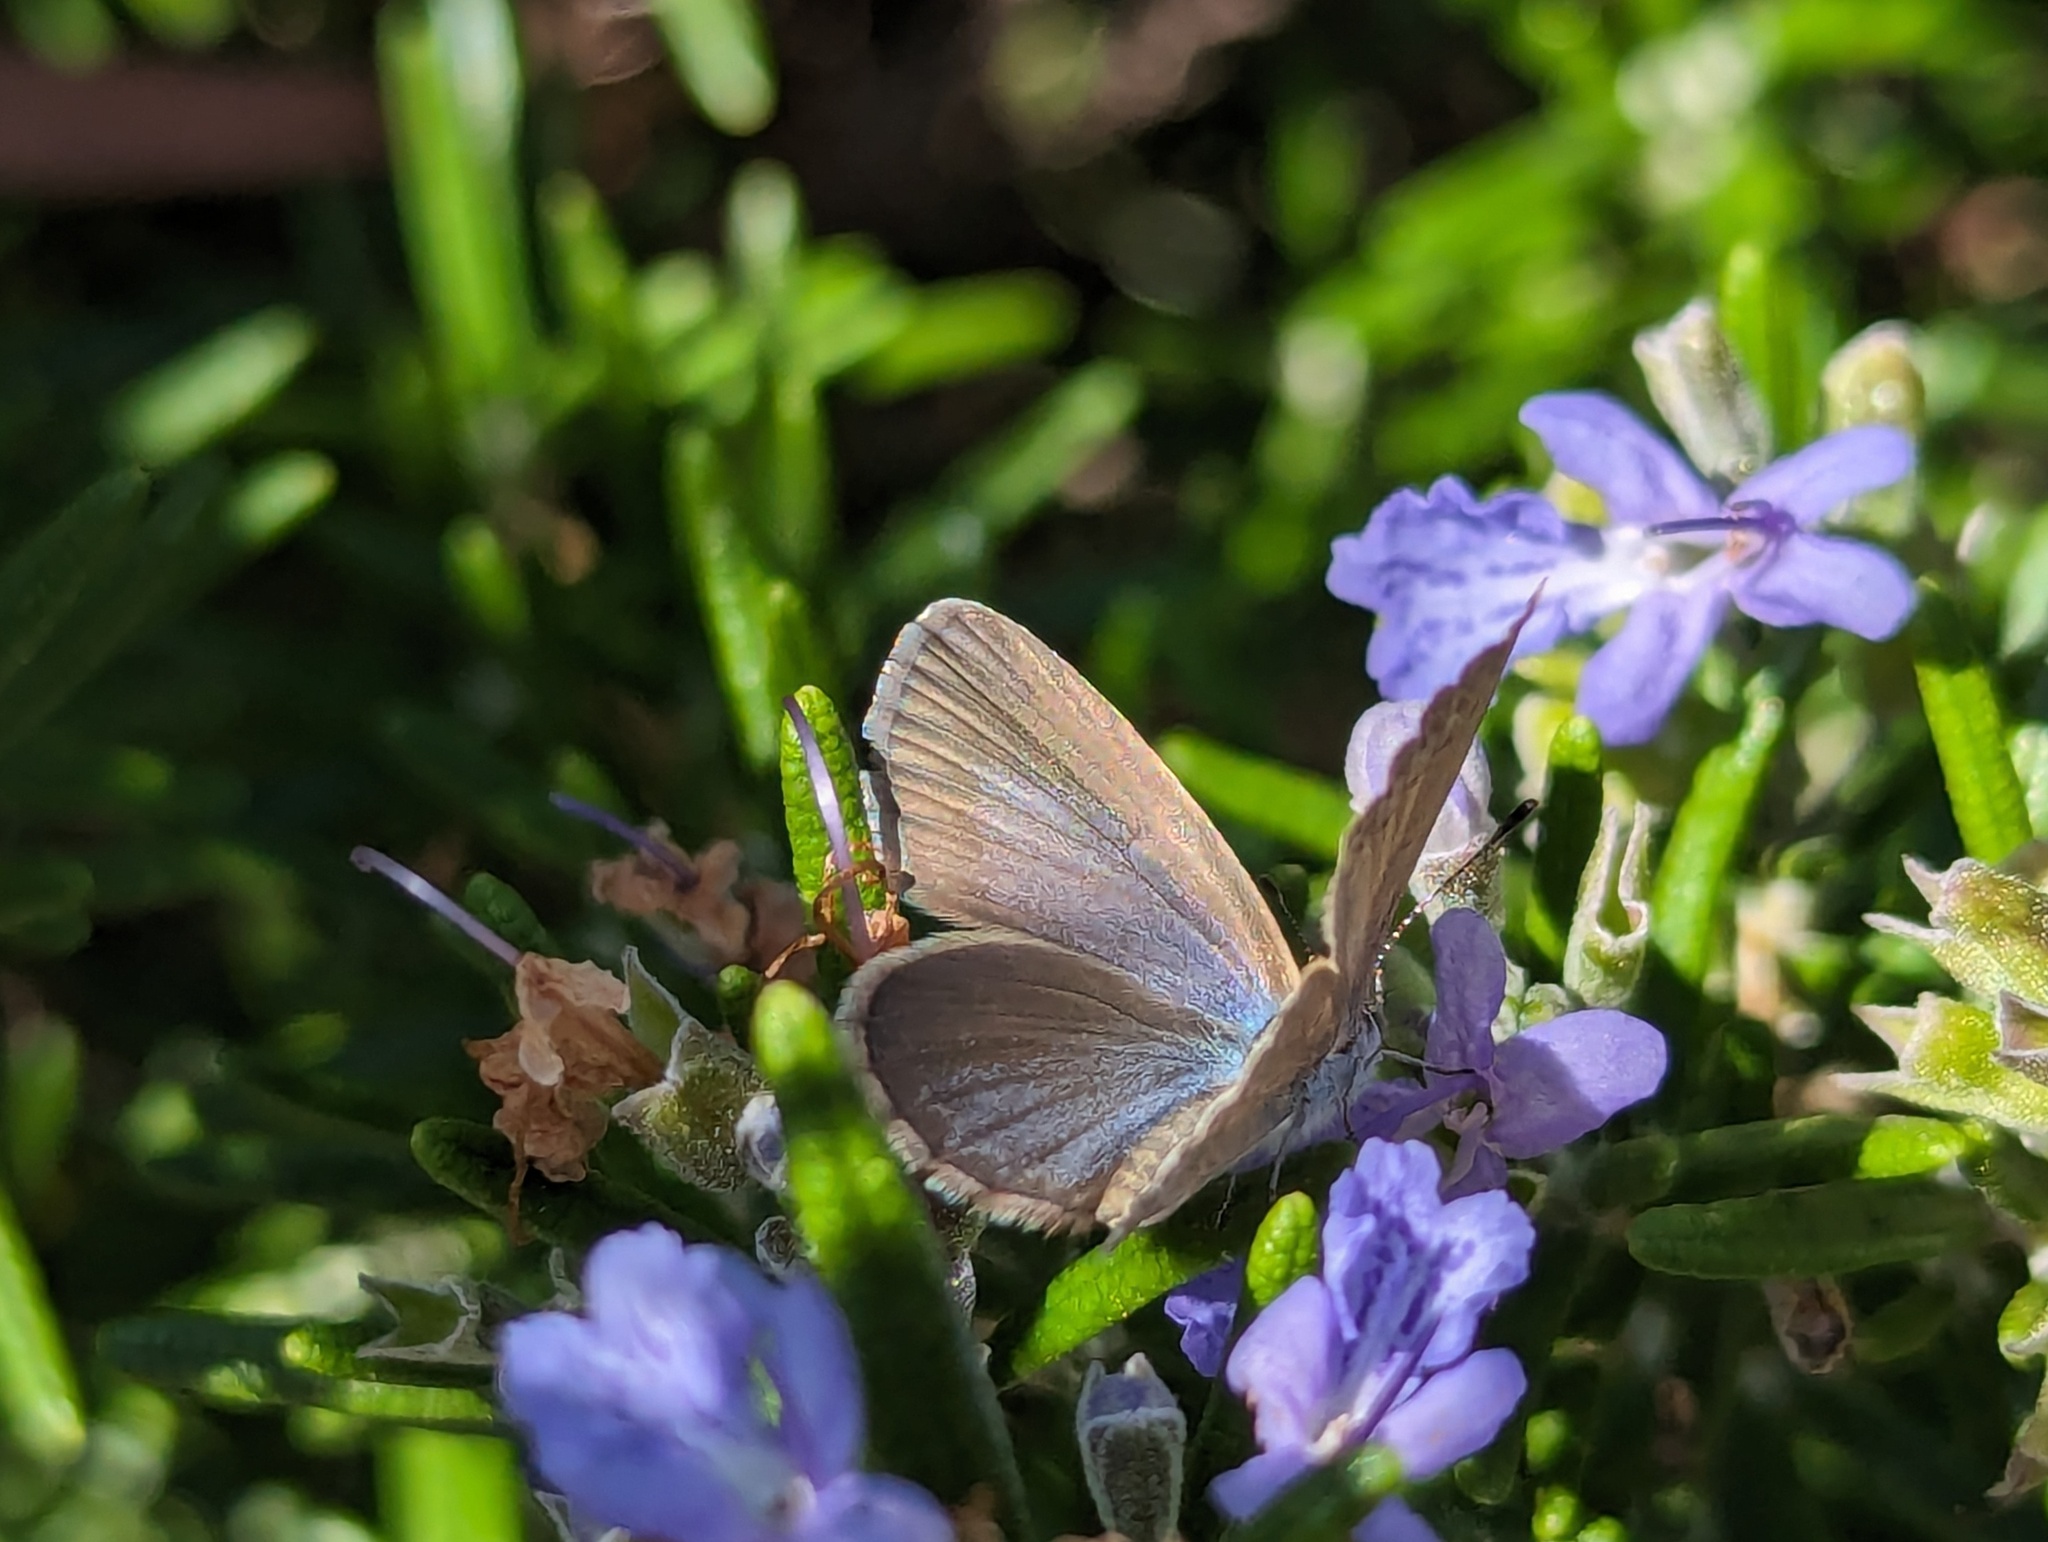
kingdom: Animalia
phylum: Arthropoda
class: Insecta
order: Lepidoptera
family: Lycaenidae
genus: Zizina
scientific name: Zizina labradus
